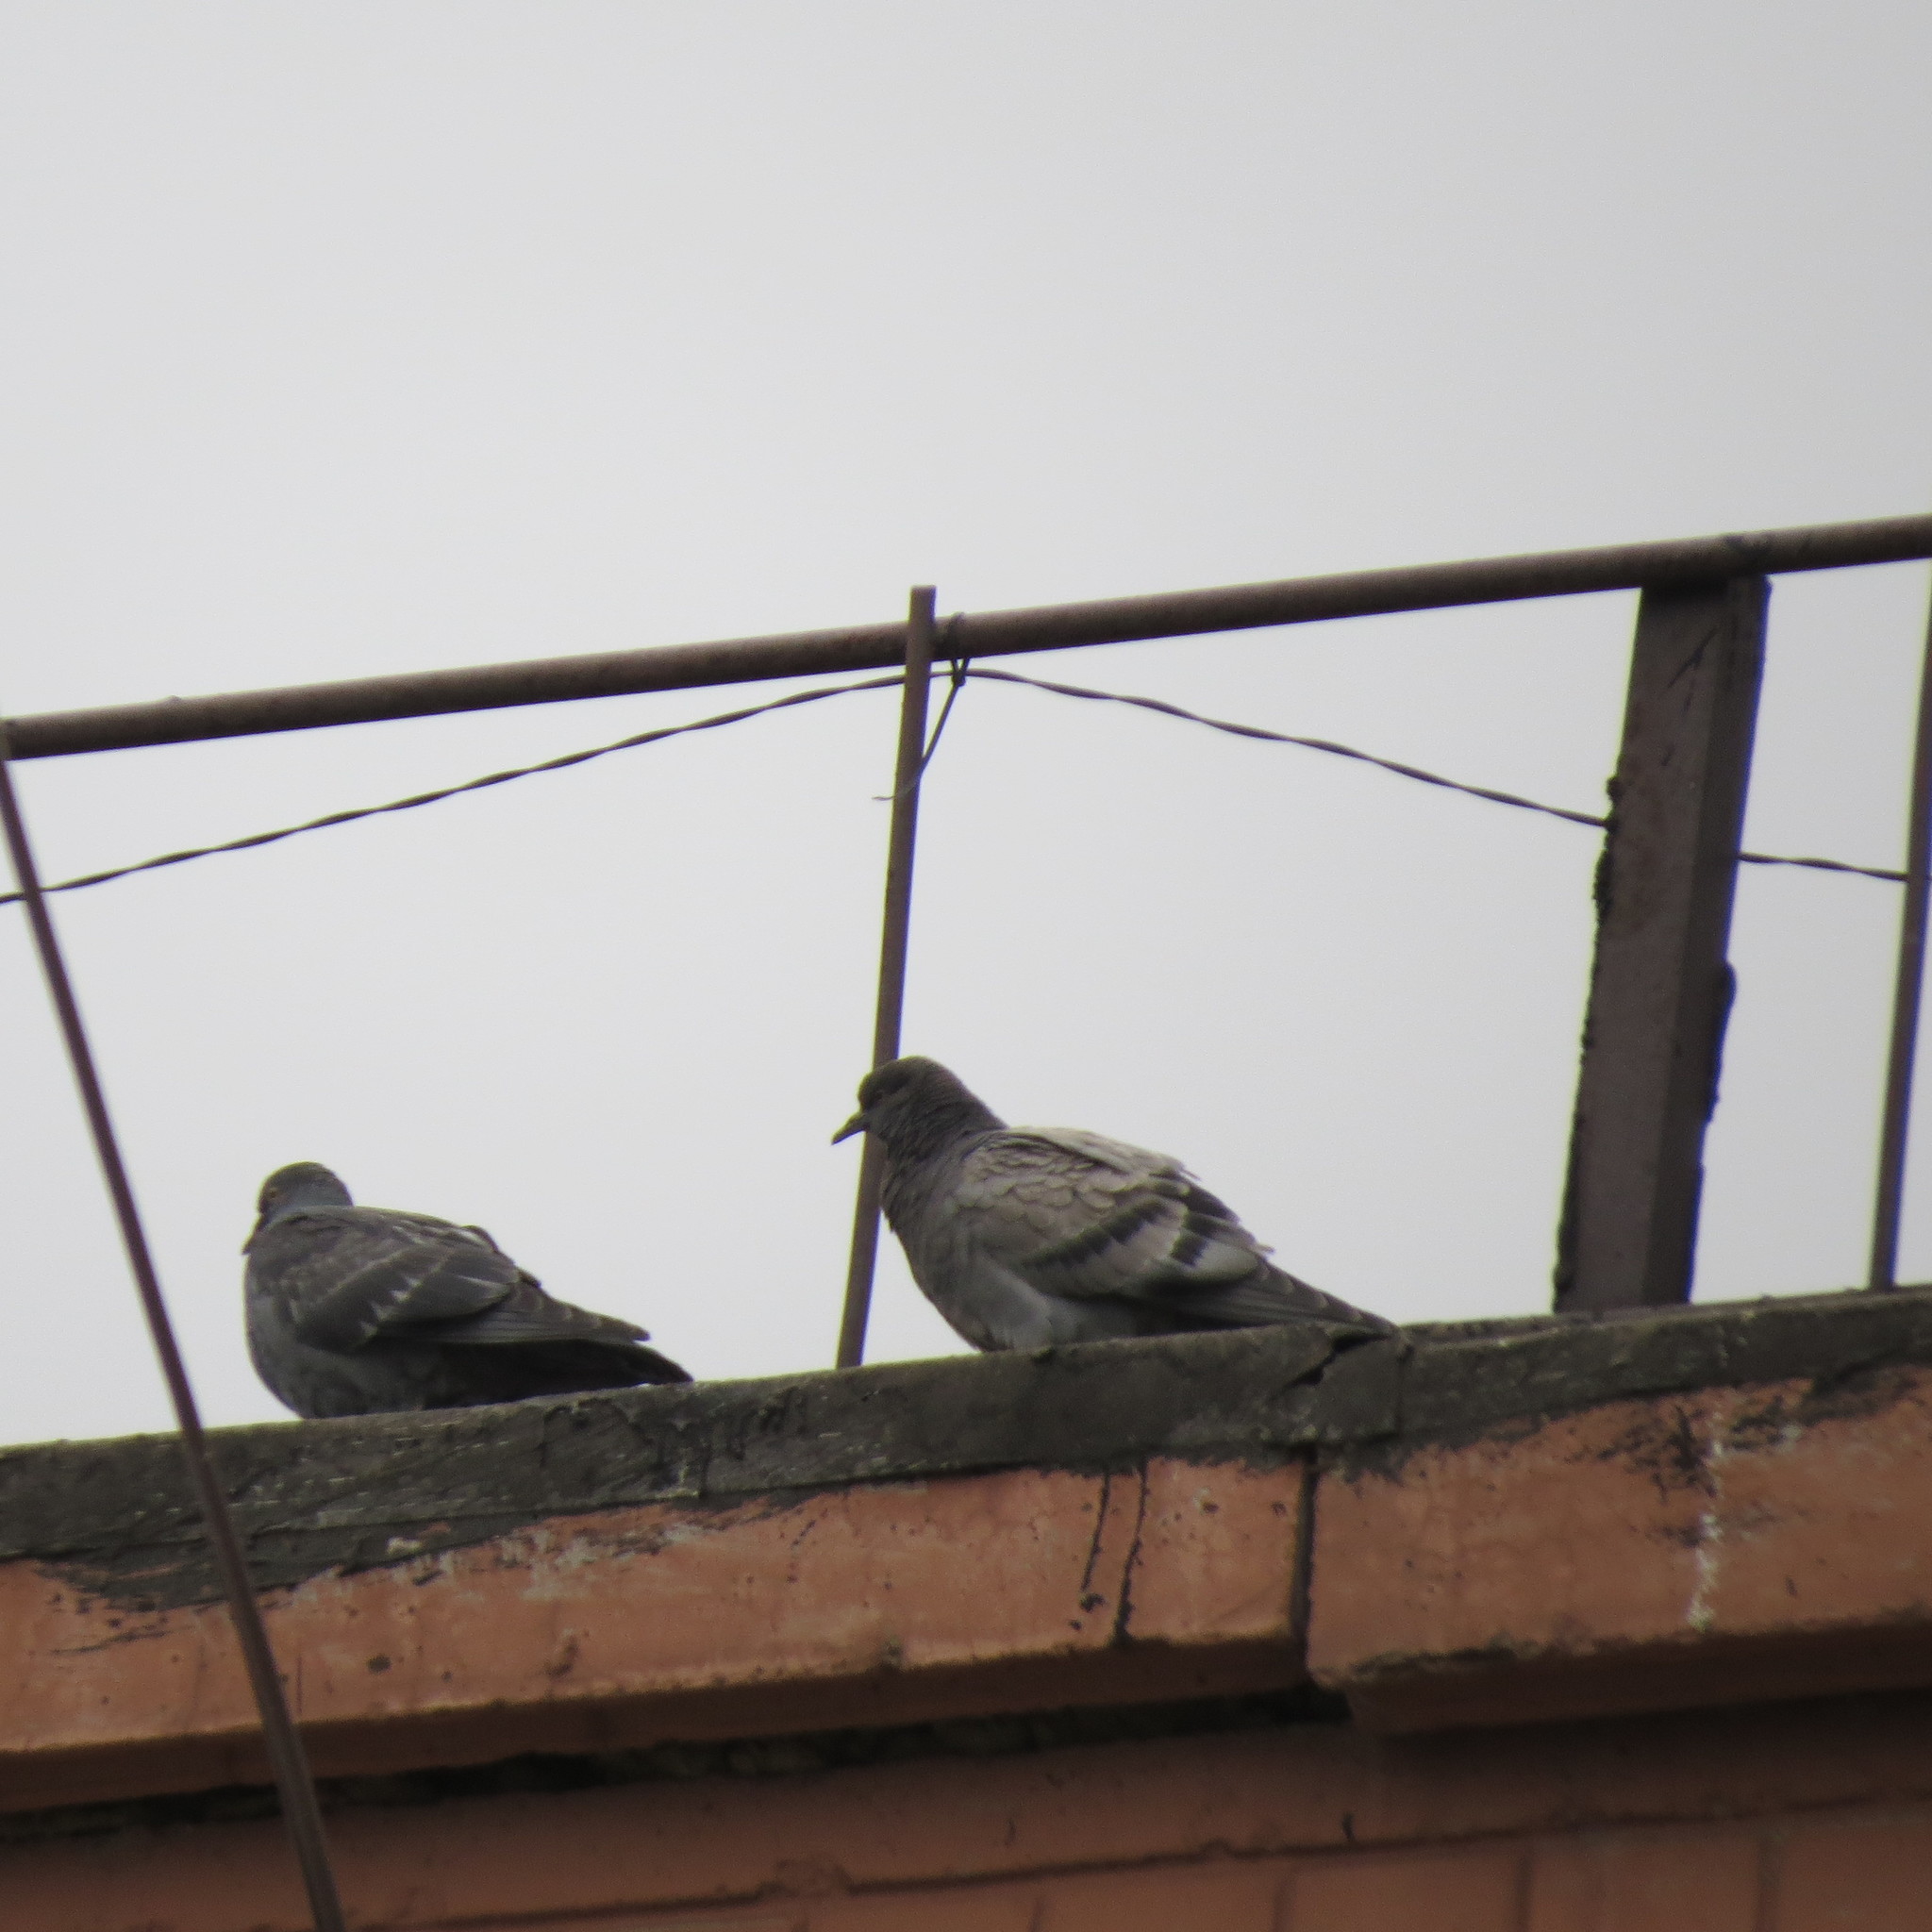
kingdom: Animalia
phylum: Chordata
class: Aves
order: Columbiformes
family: Columbidae
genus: Columba
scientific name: Columba livia
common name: Rock pigeon
